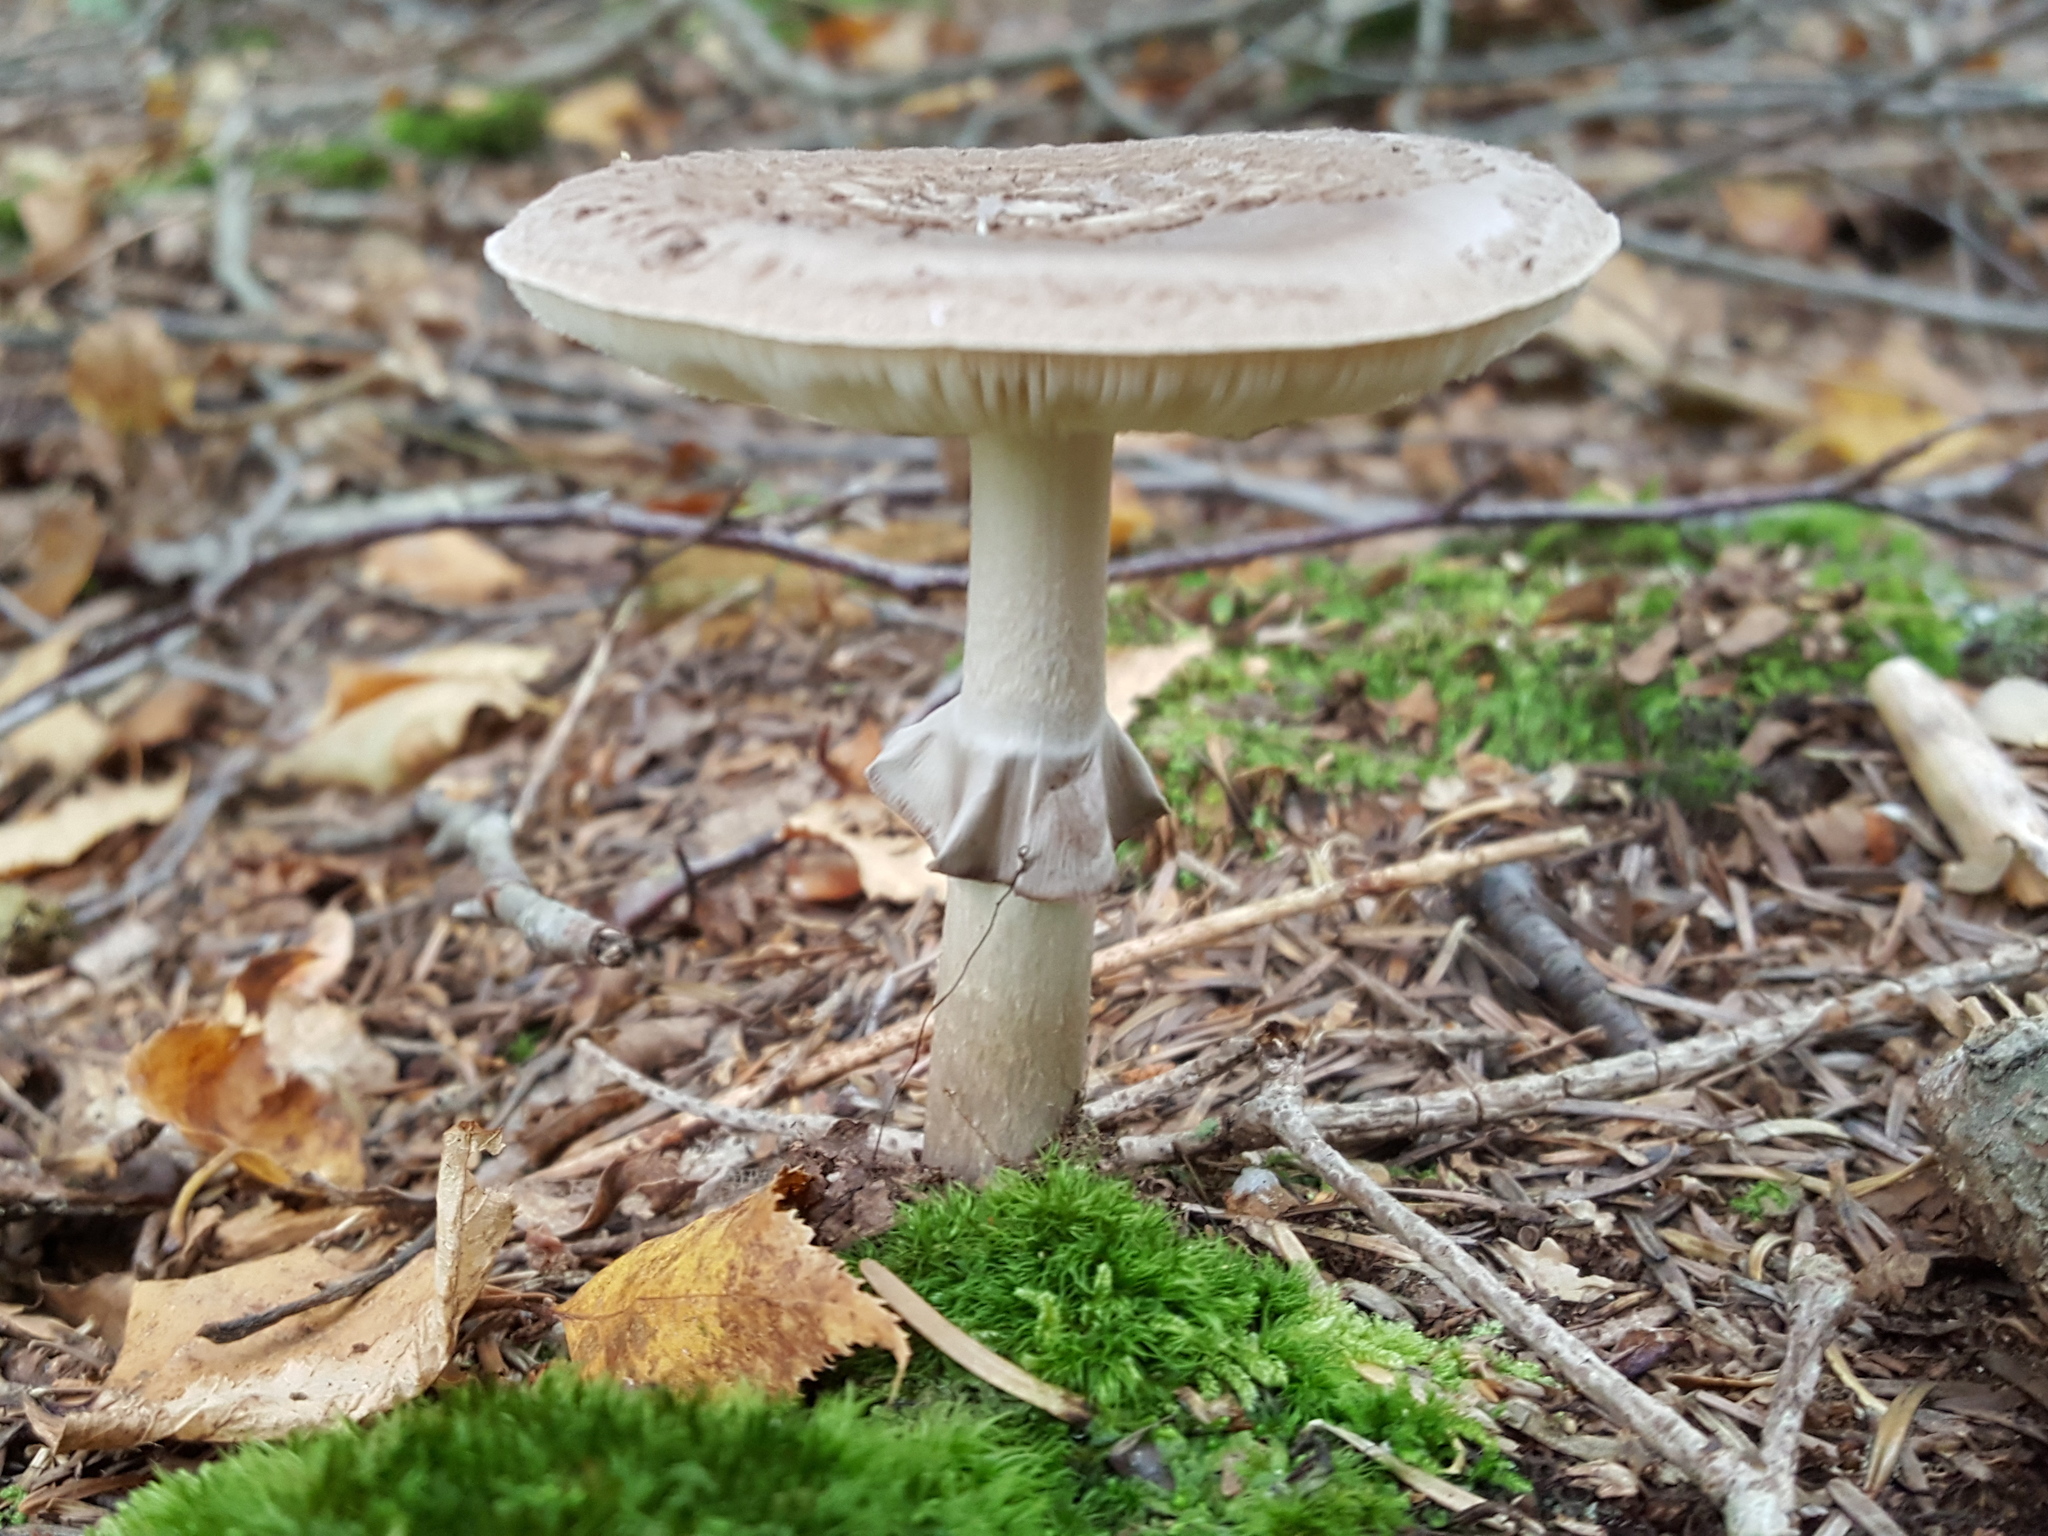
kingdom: Fungi
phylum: Basidiomycota
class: Agaricomycetes
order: Agaricales
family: Amanitaceae
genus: Amanita
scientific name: Amanita porphyria
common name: Grey veiled amanita
